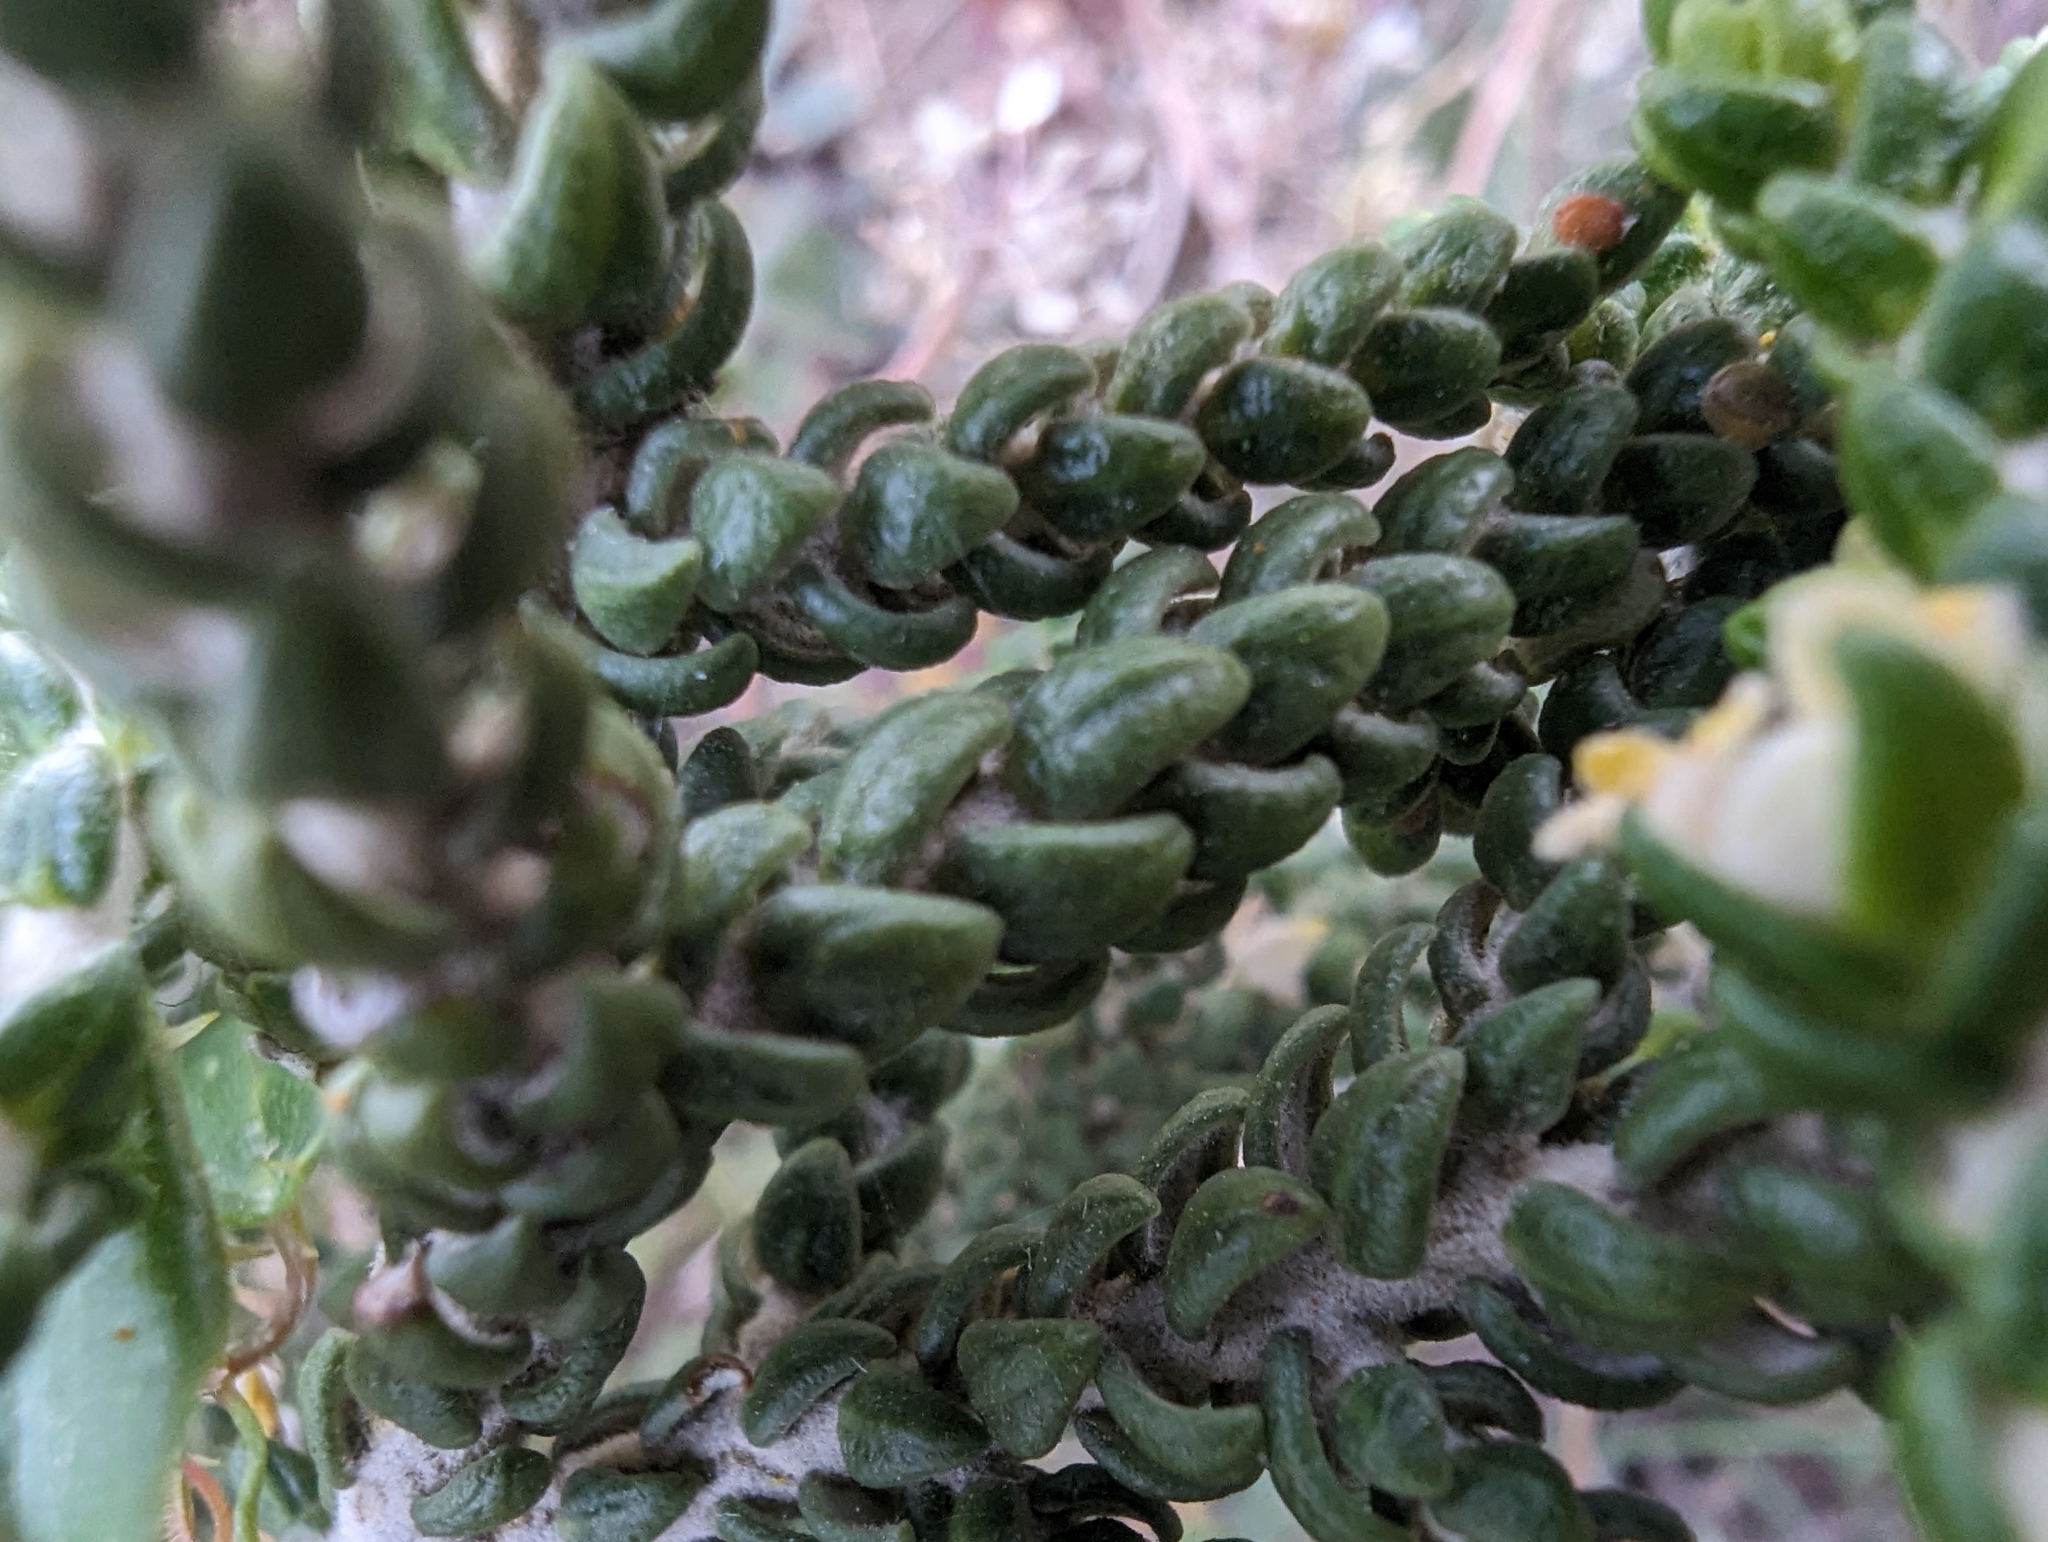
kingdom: Plantae
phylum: Tracheophyta
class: Magnoliopsida
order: Malvales
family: Thymelaeaceae
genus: Thymelaea
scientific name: Thymelaea hirsuta
